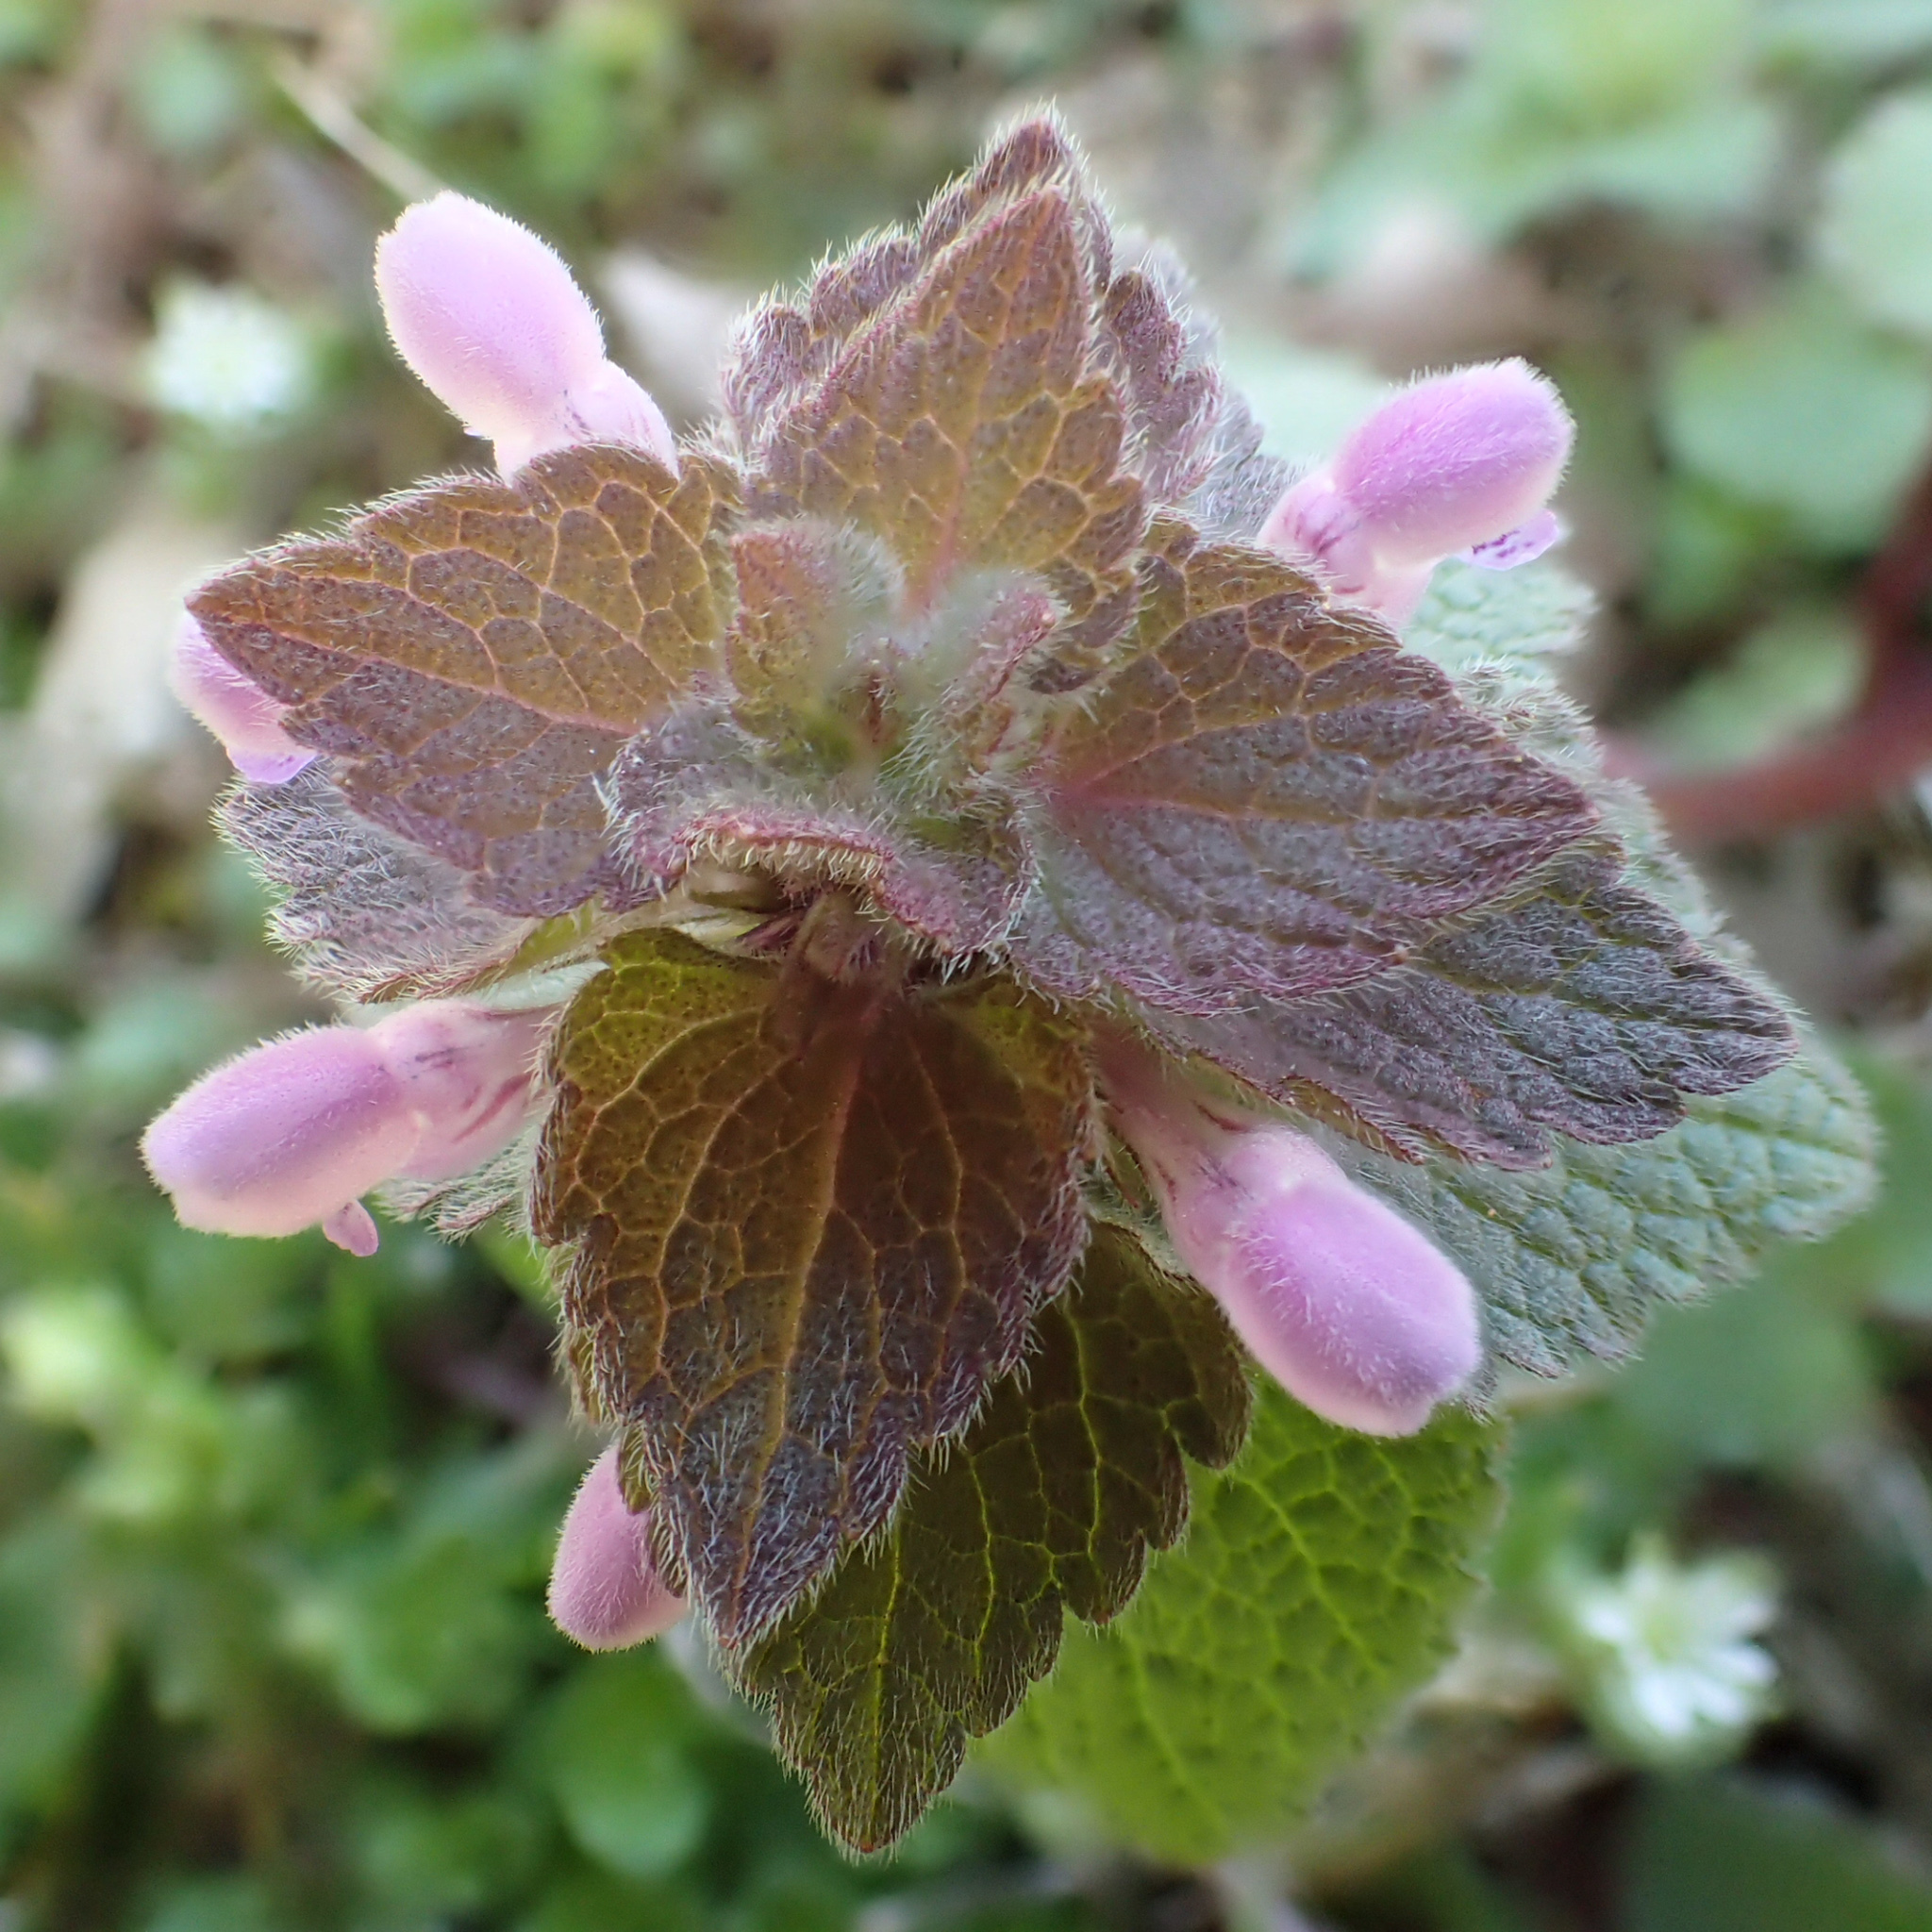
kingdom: Plantae
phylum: Tracheophyta
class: Magnoliopsida
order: Lamiales
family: Lamiaceae
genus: Lamium
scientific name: Lamium purpureum
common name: Red dead-nettle
